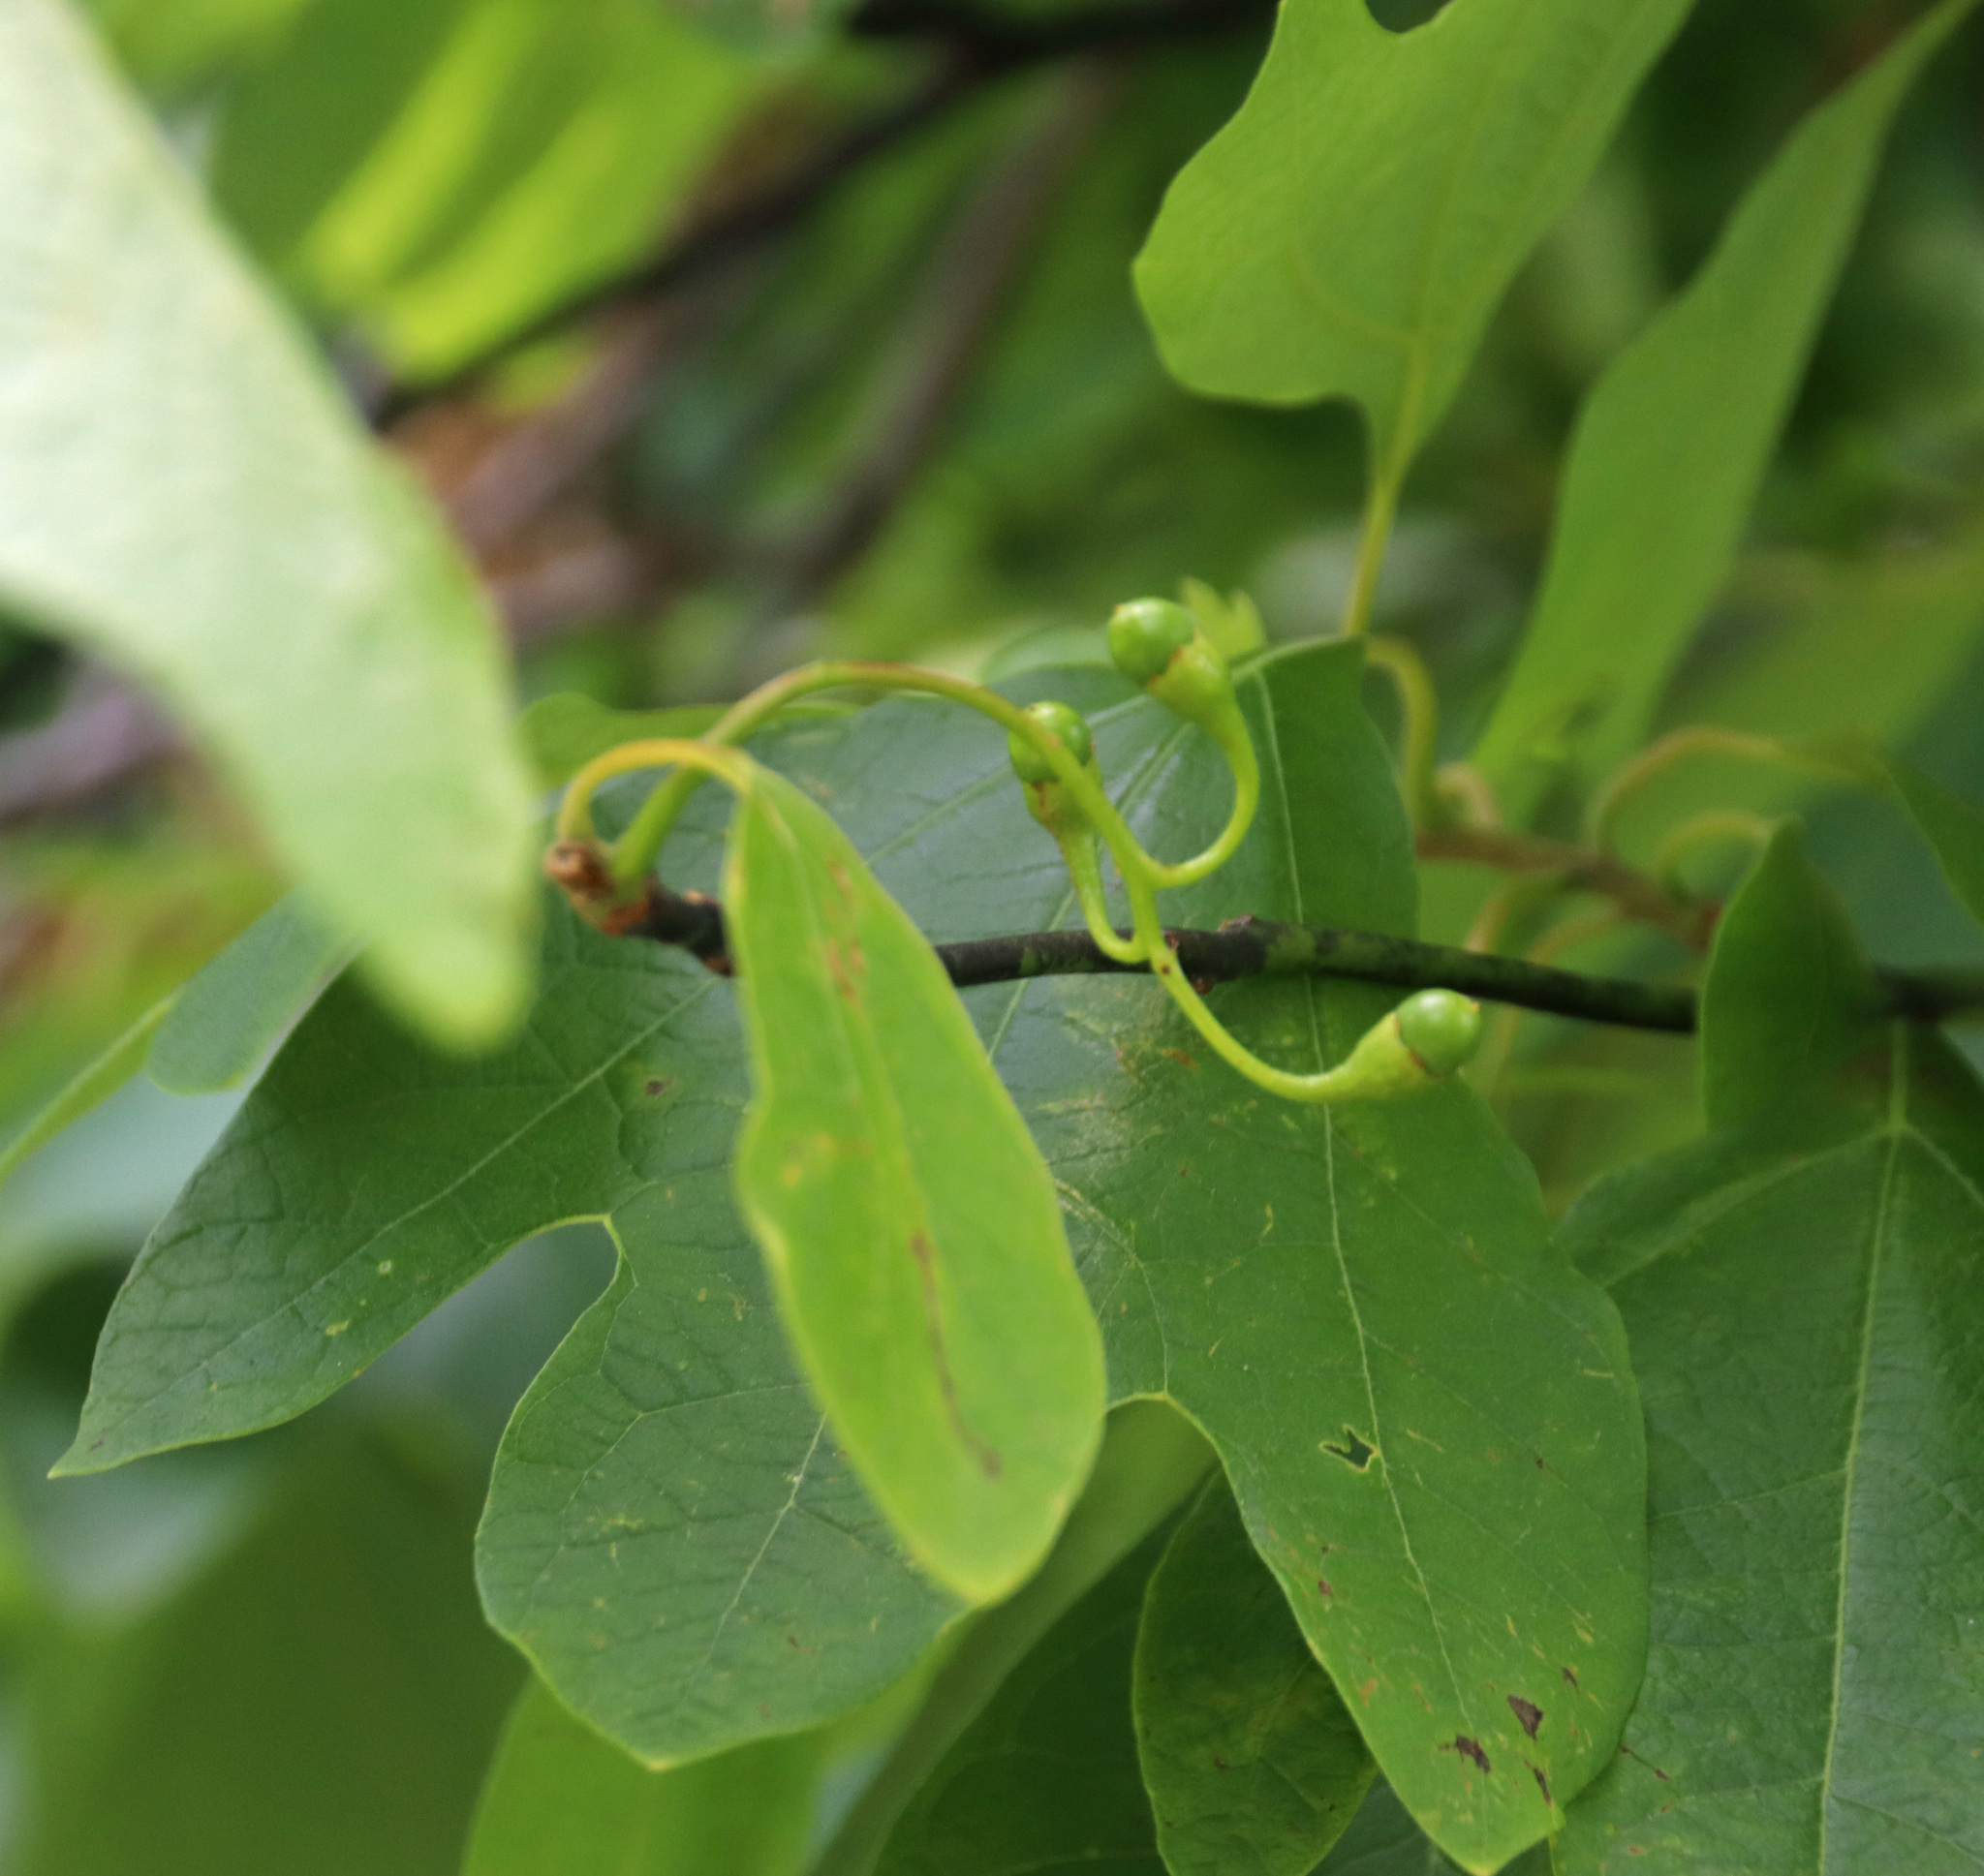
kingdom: Plantae
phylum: Tracheophyta
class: Magnoliopsida
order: Laurales
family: Lauraceae
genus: Sassafras
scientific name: Sassafras albidum
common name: Sassafras
